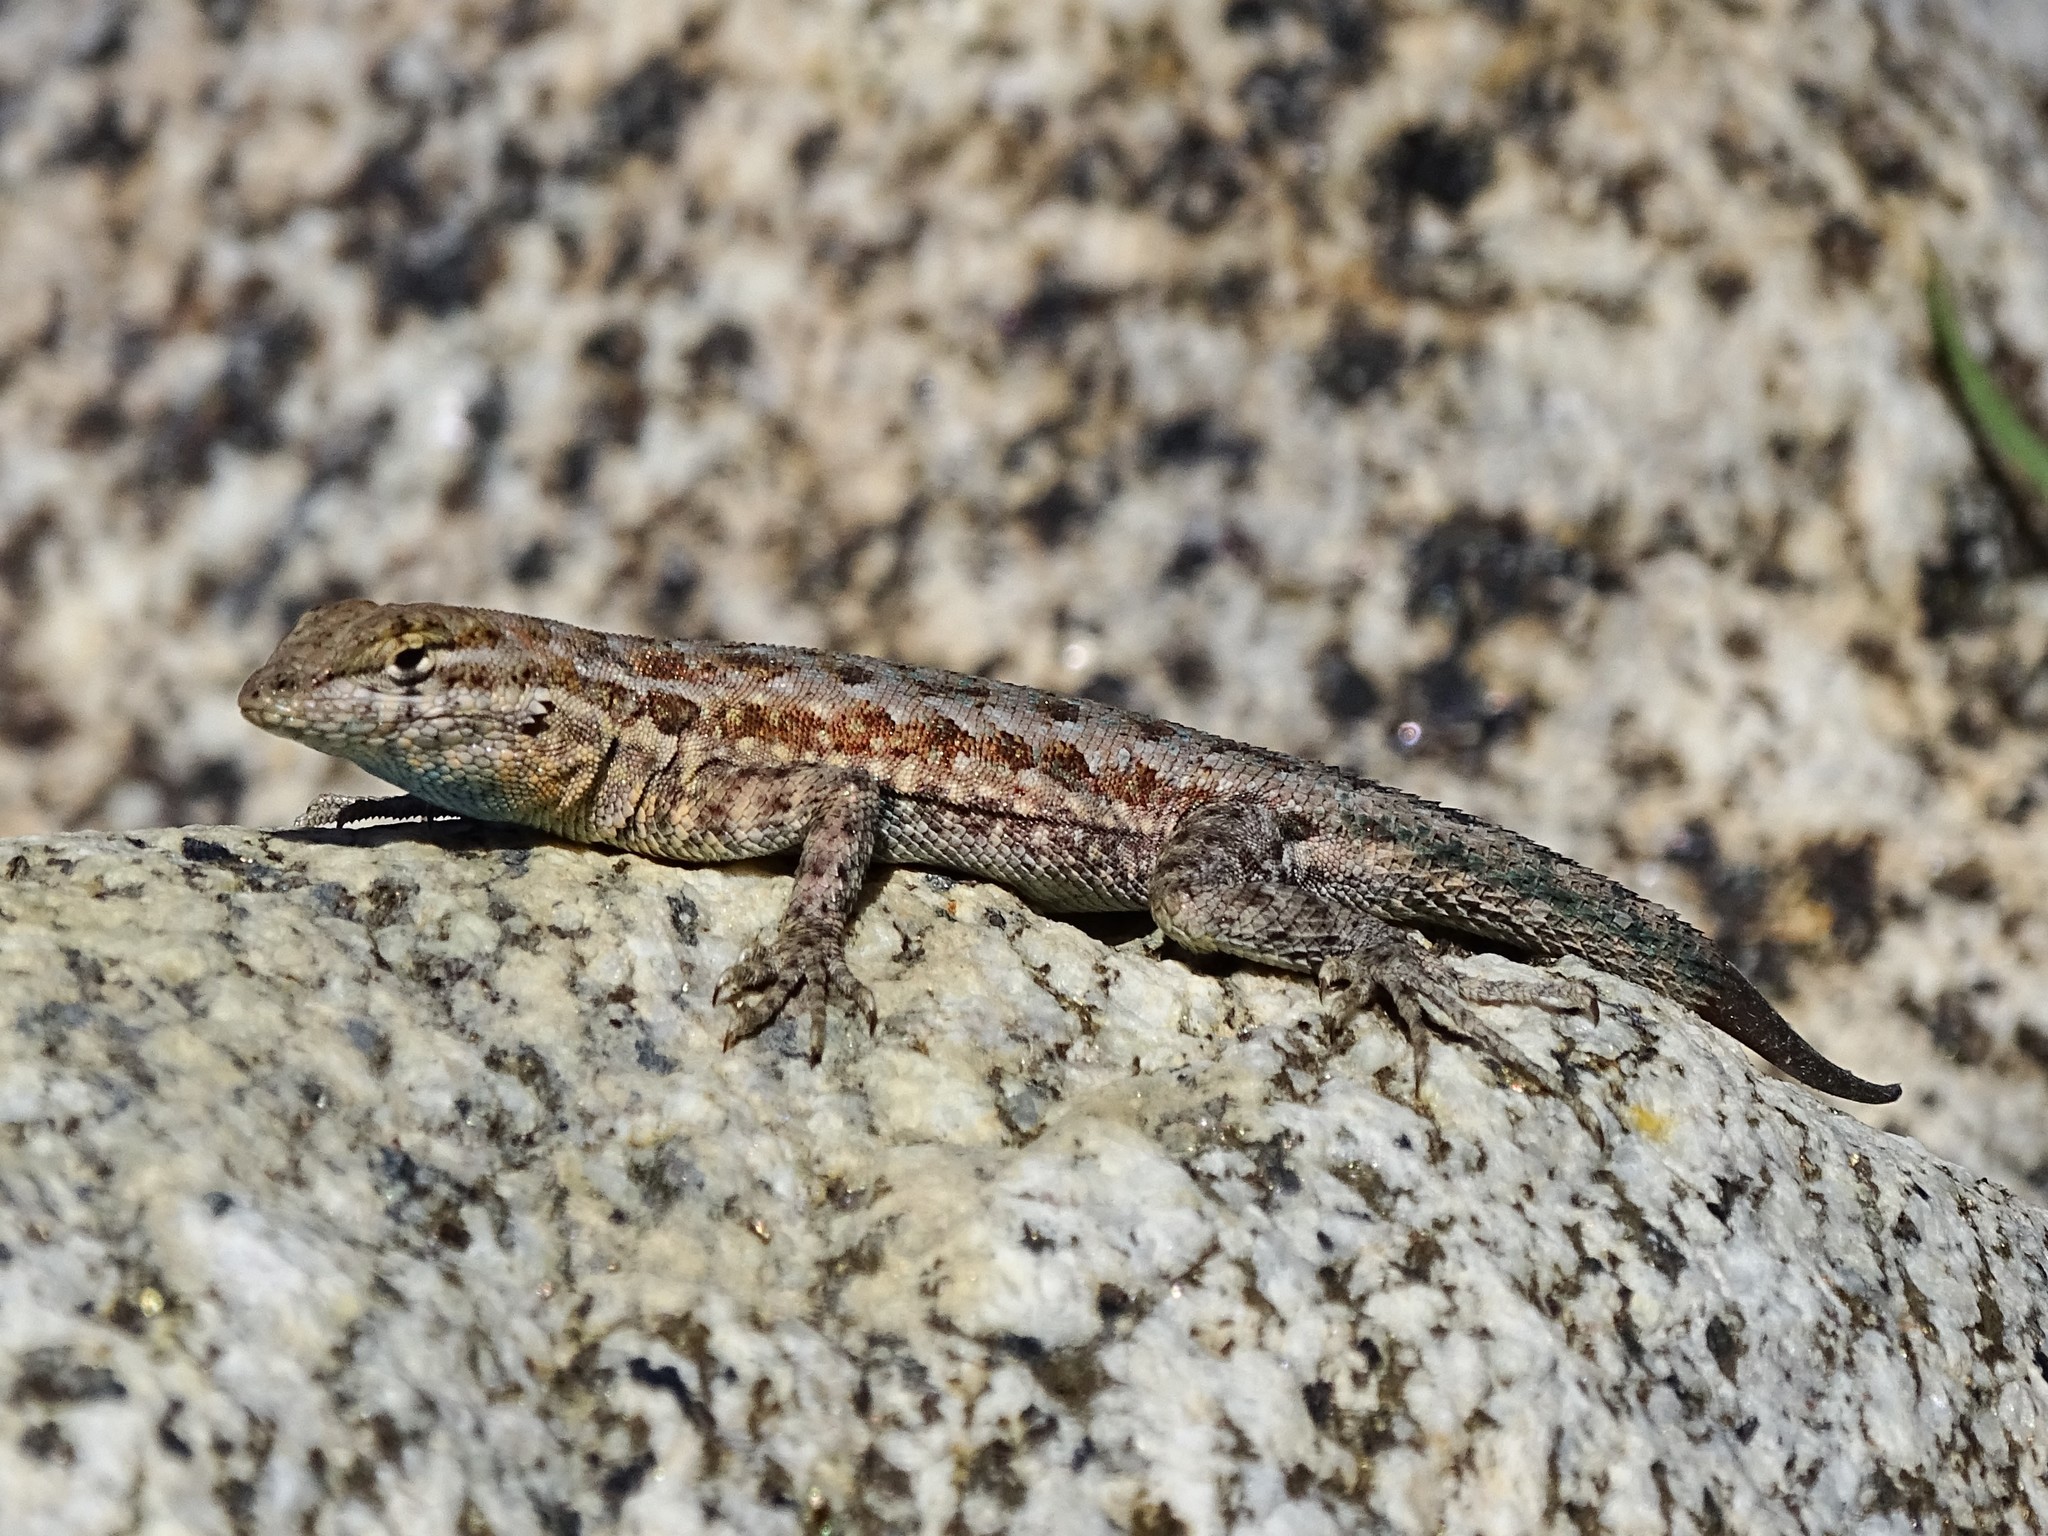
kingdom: Animalia
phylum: Chordata
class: Squamata
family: Phrynosomatidae
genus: Uta
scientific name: Uta stansburiana
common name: Side-blotched lizard
